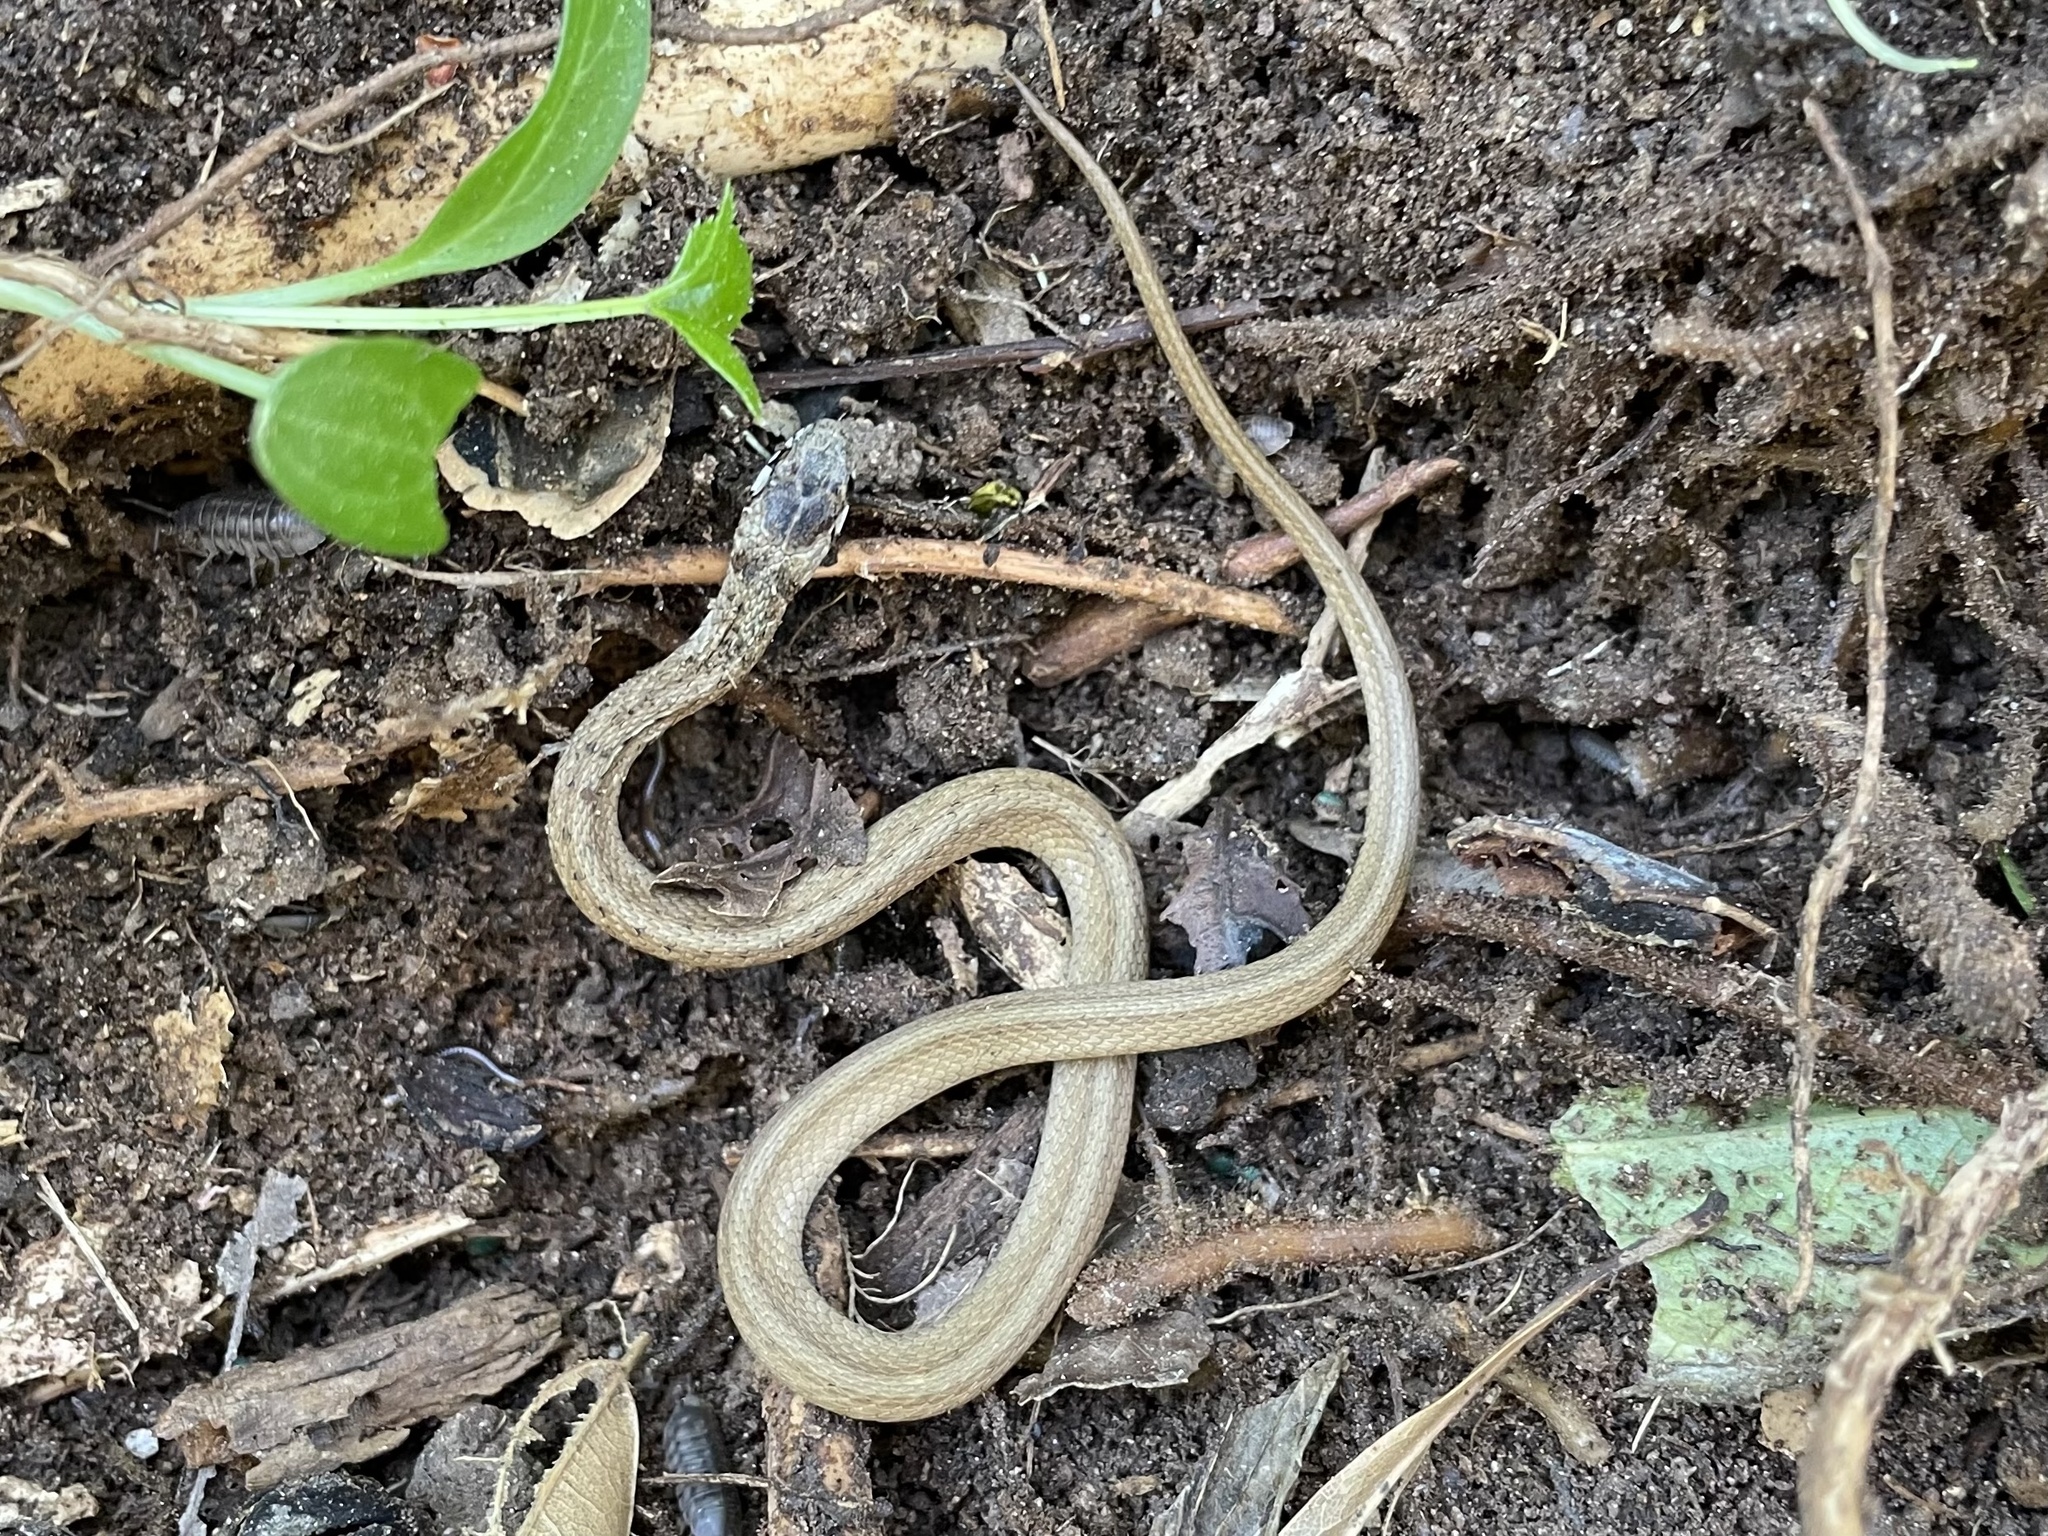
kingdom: Animalia
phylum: Chordata
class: Squamata
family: Colubridae
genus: Storeria
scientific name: Storeria dekayi
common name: (dekay’s) brown snake
